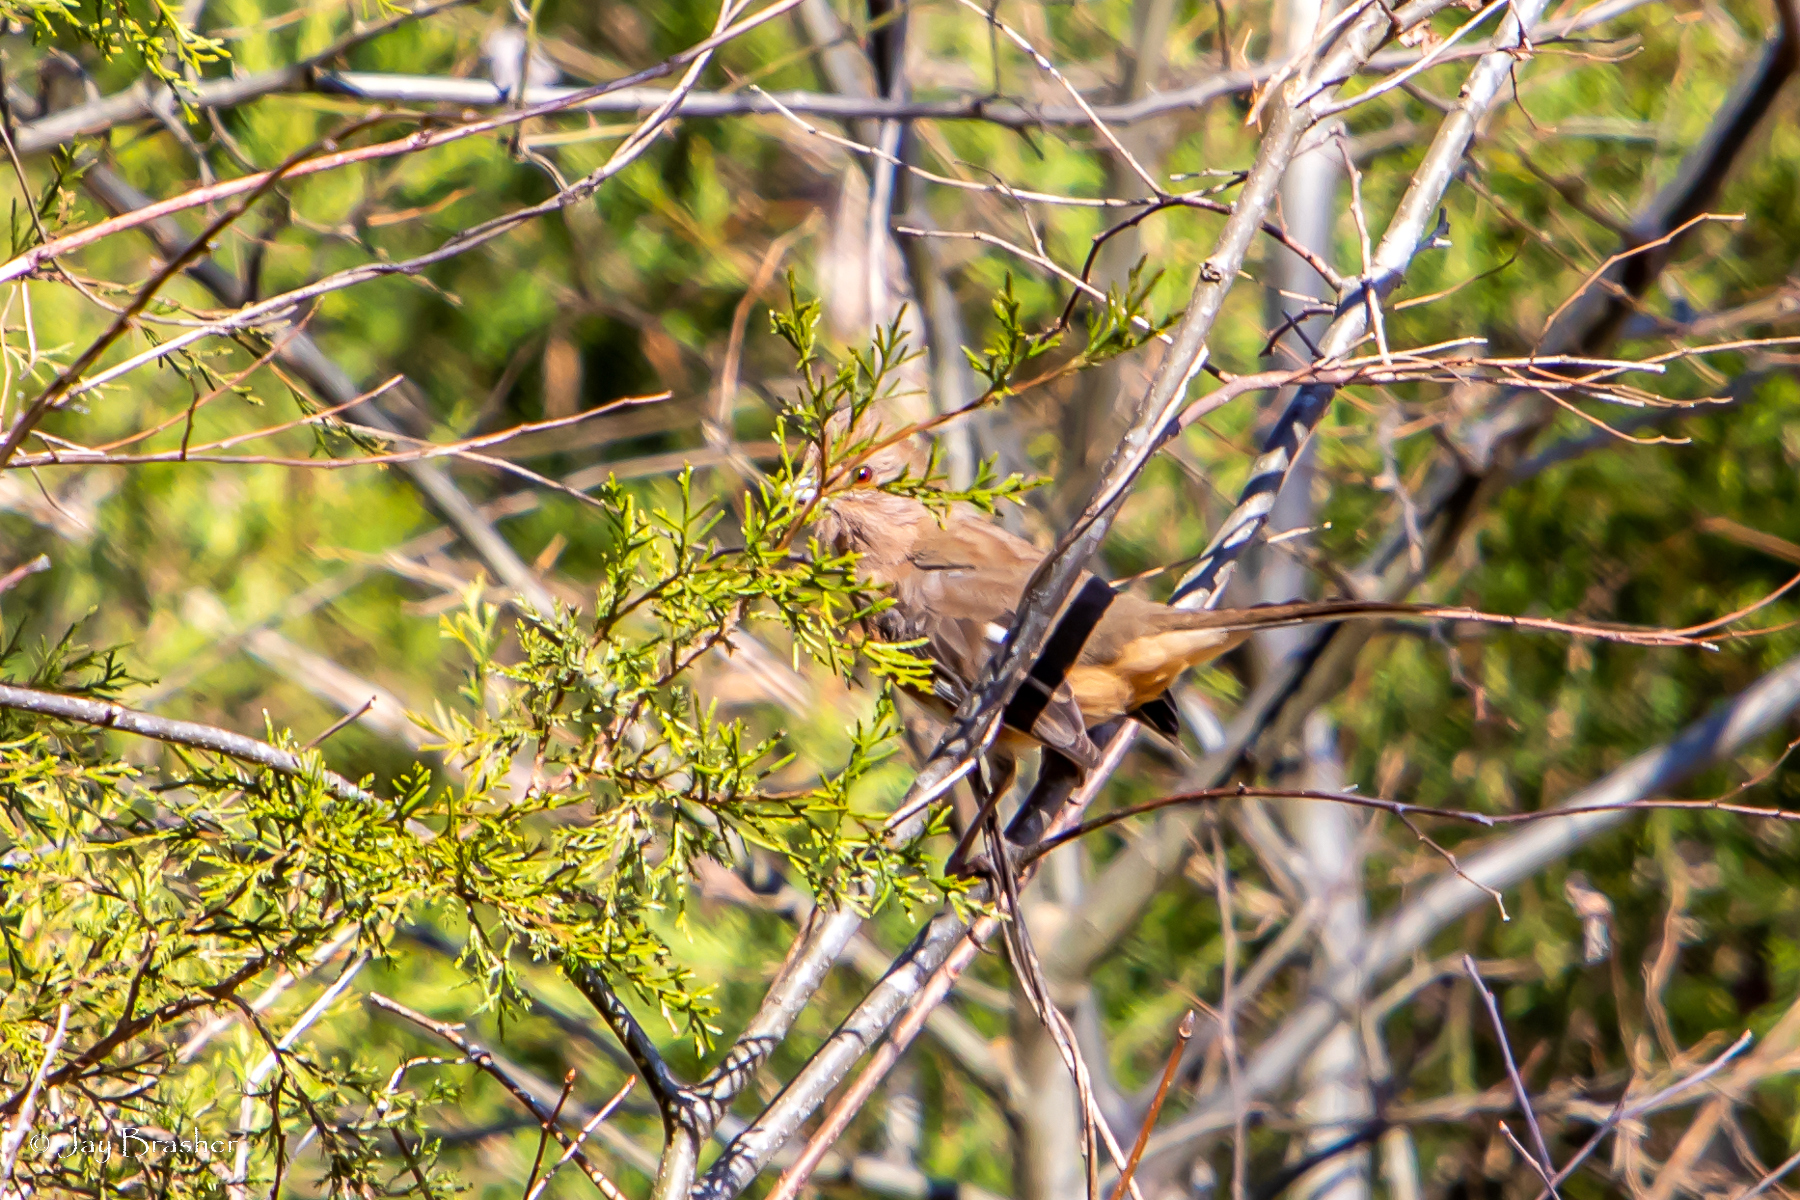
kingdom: Animalia
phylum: Chordata
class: Aves
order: Passeriformes
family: Passerellidae
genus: Pipilo
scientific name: Pipilo erythrophthalmus
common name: Eastern towhee
